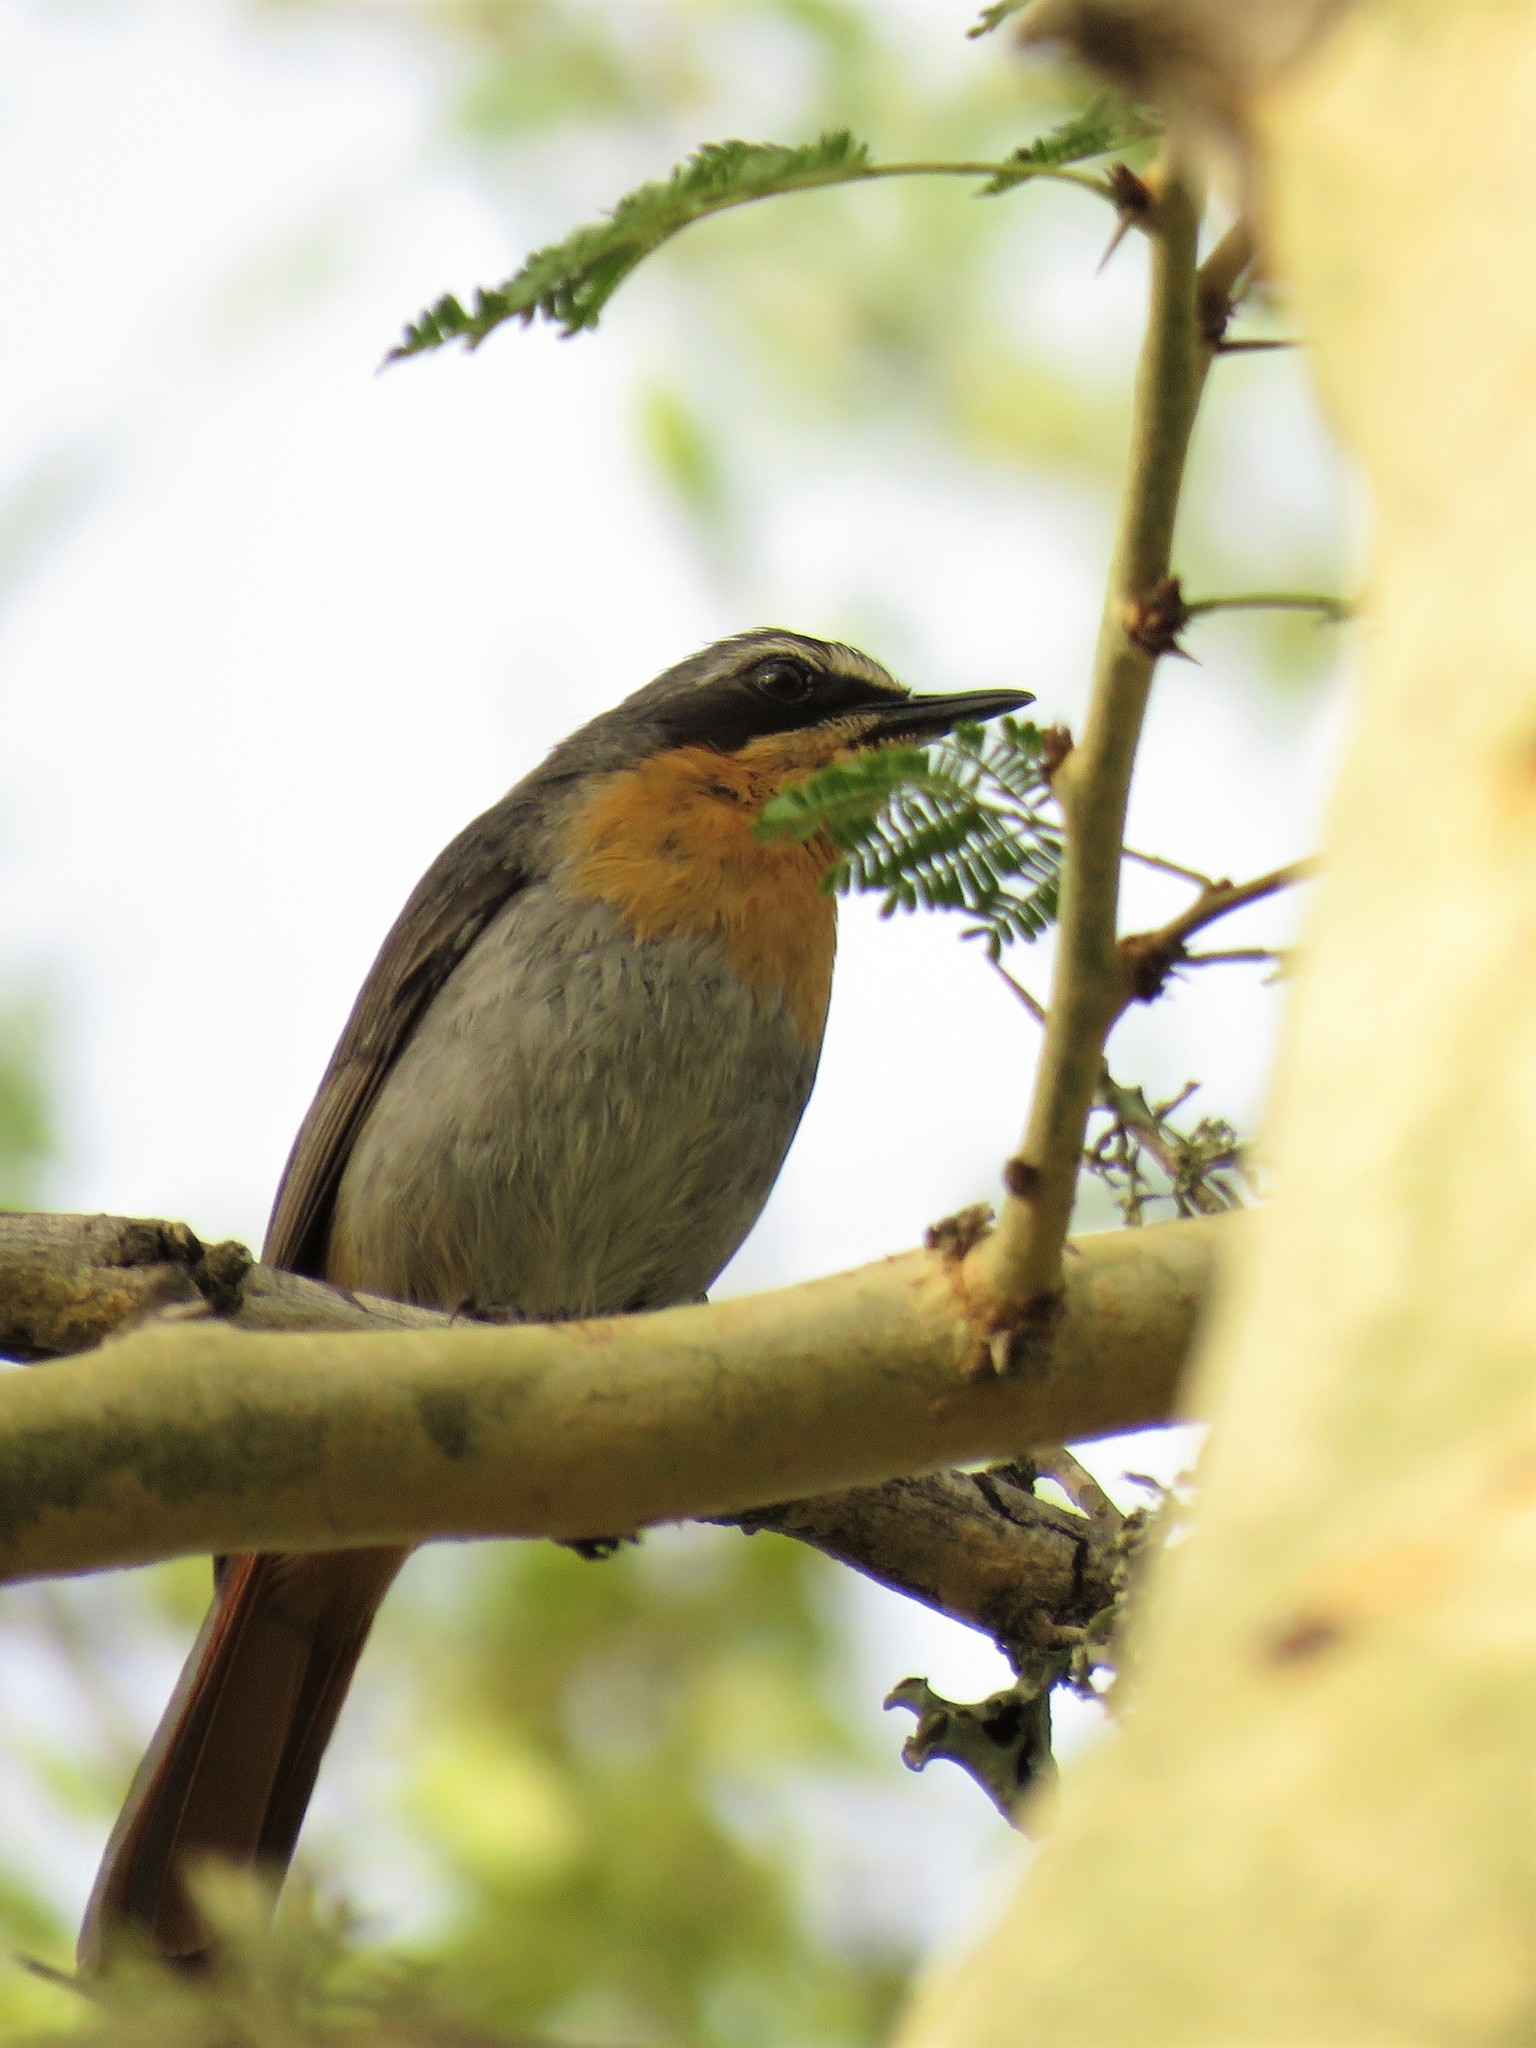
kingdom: Animalia
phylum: Chordata
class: Aves
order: Passeriformes
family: Muscicapidae
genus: Cossypha
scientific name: Cossypha caffra
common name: Cape robin-chat
